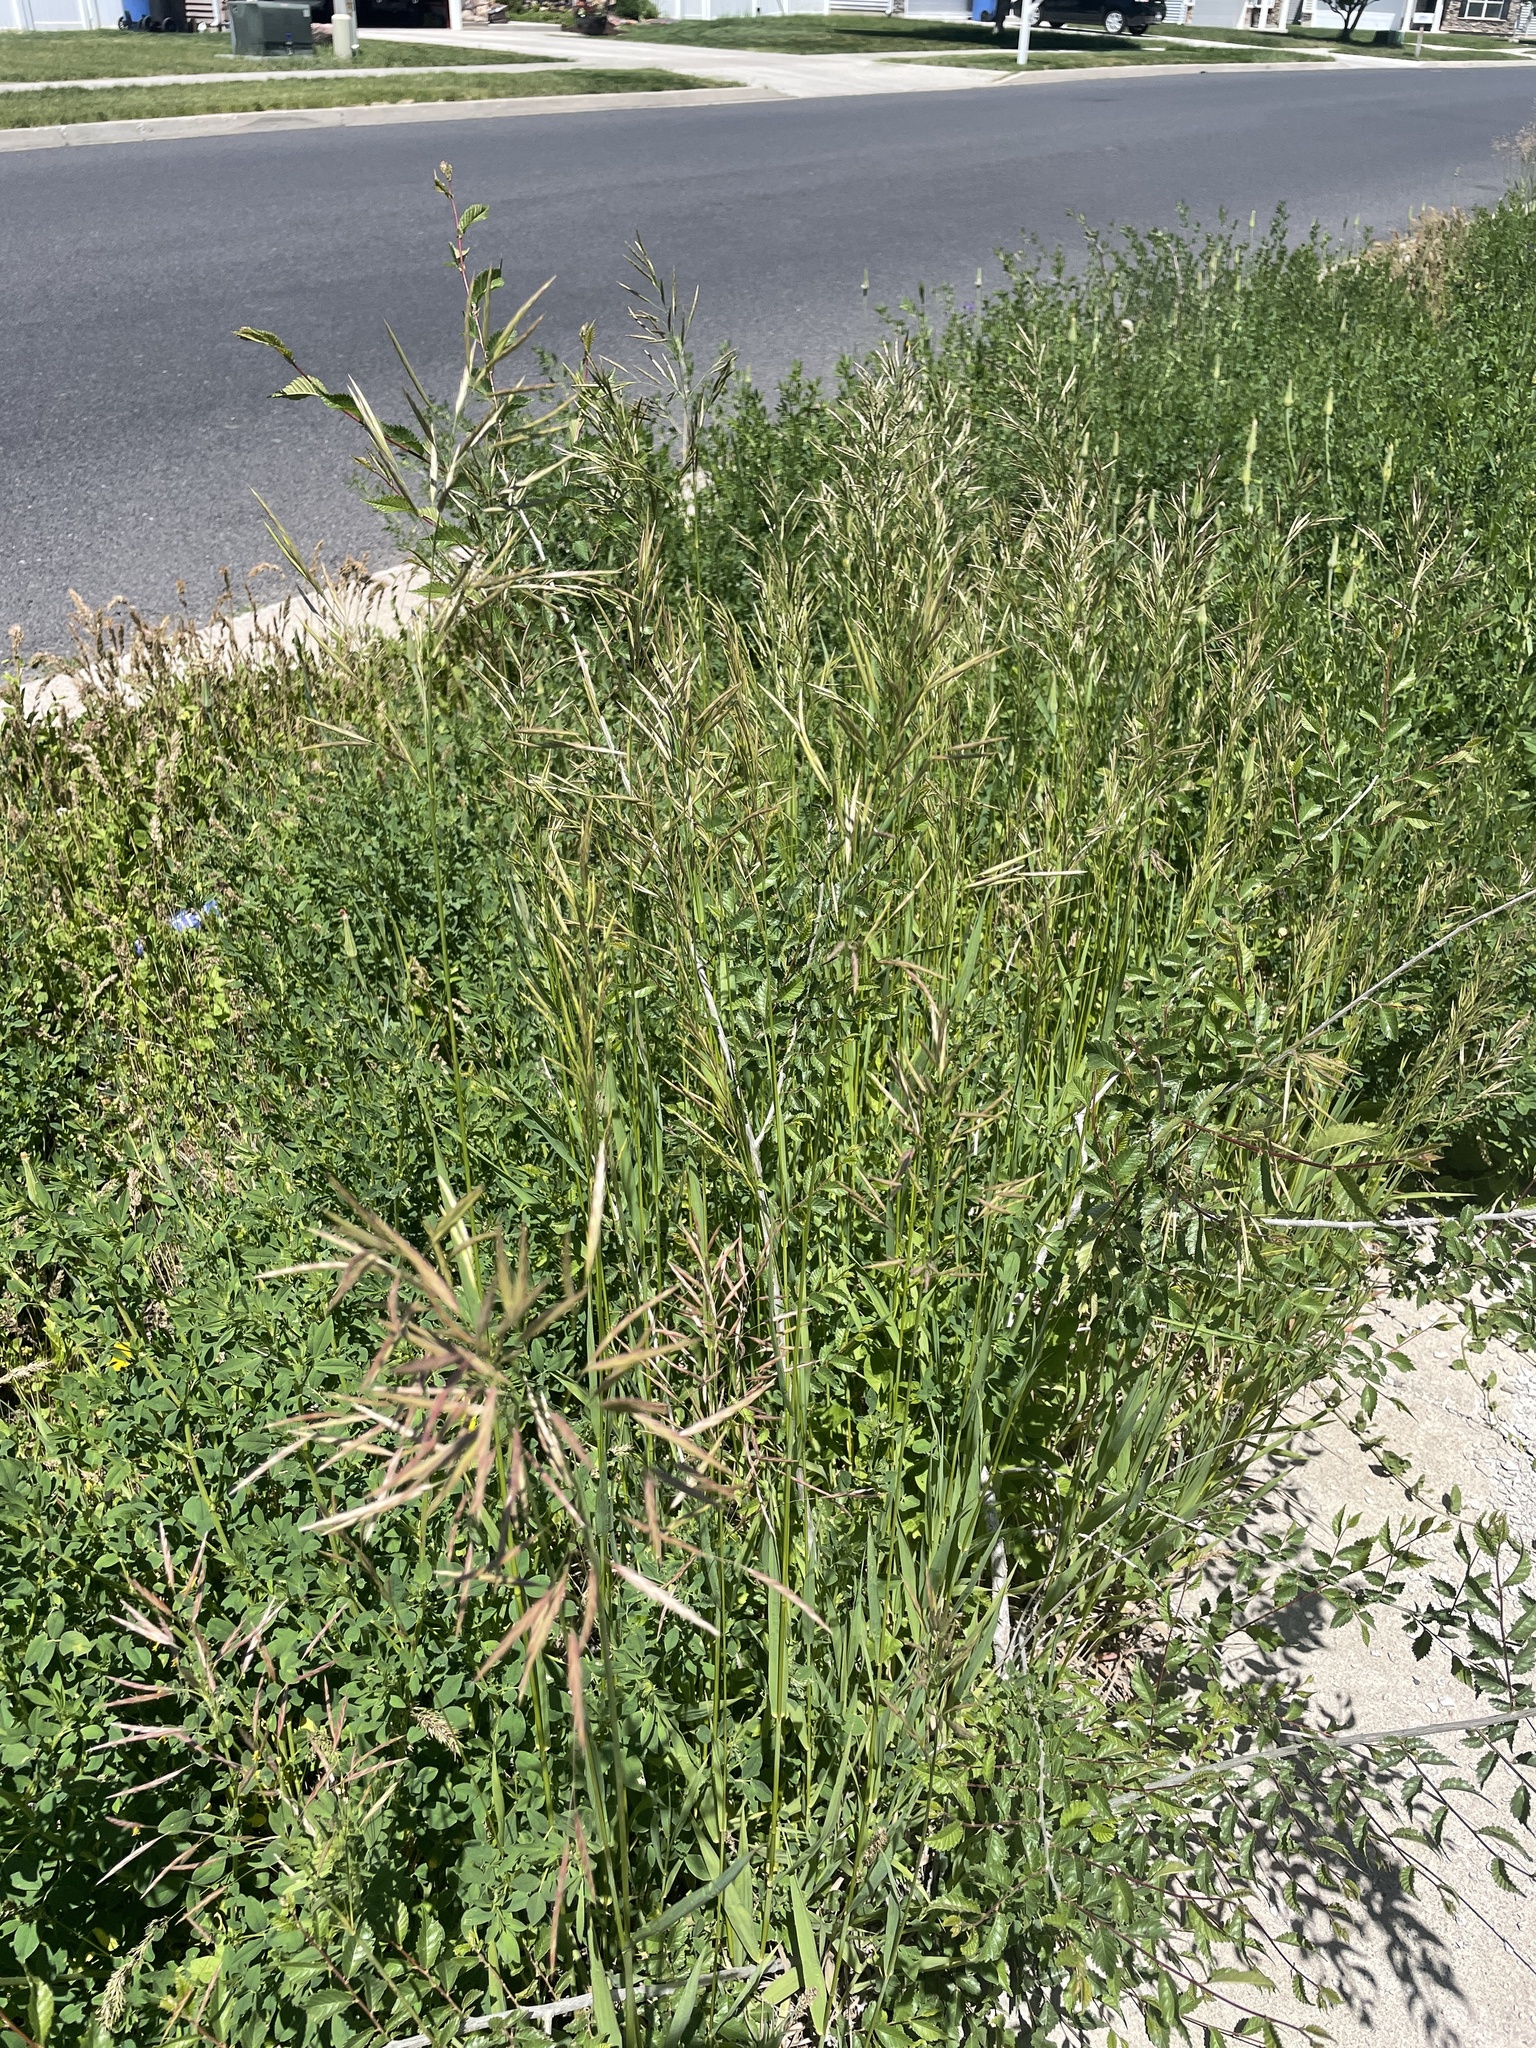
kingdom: Plantae
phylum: Tracheophyta
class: Liliopsida
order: Poales
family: Poaceae
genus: Bromus
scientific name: Bromus inermis
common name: Smooth brome
